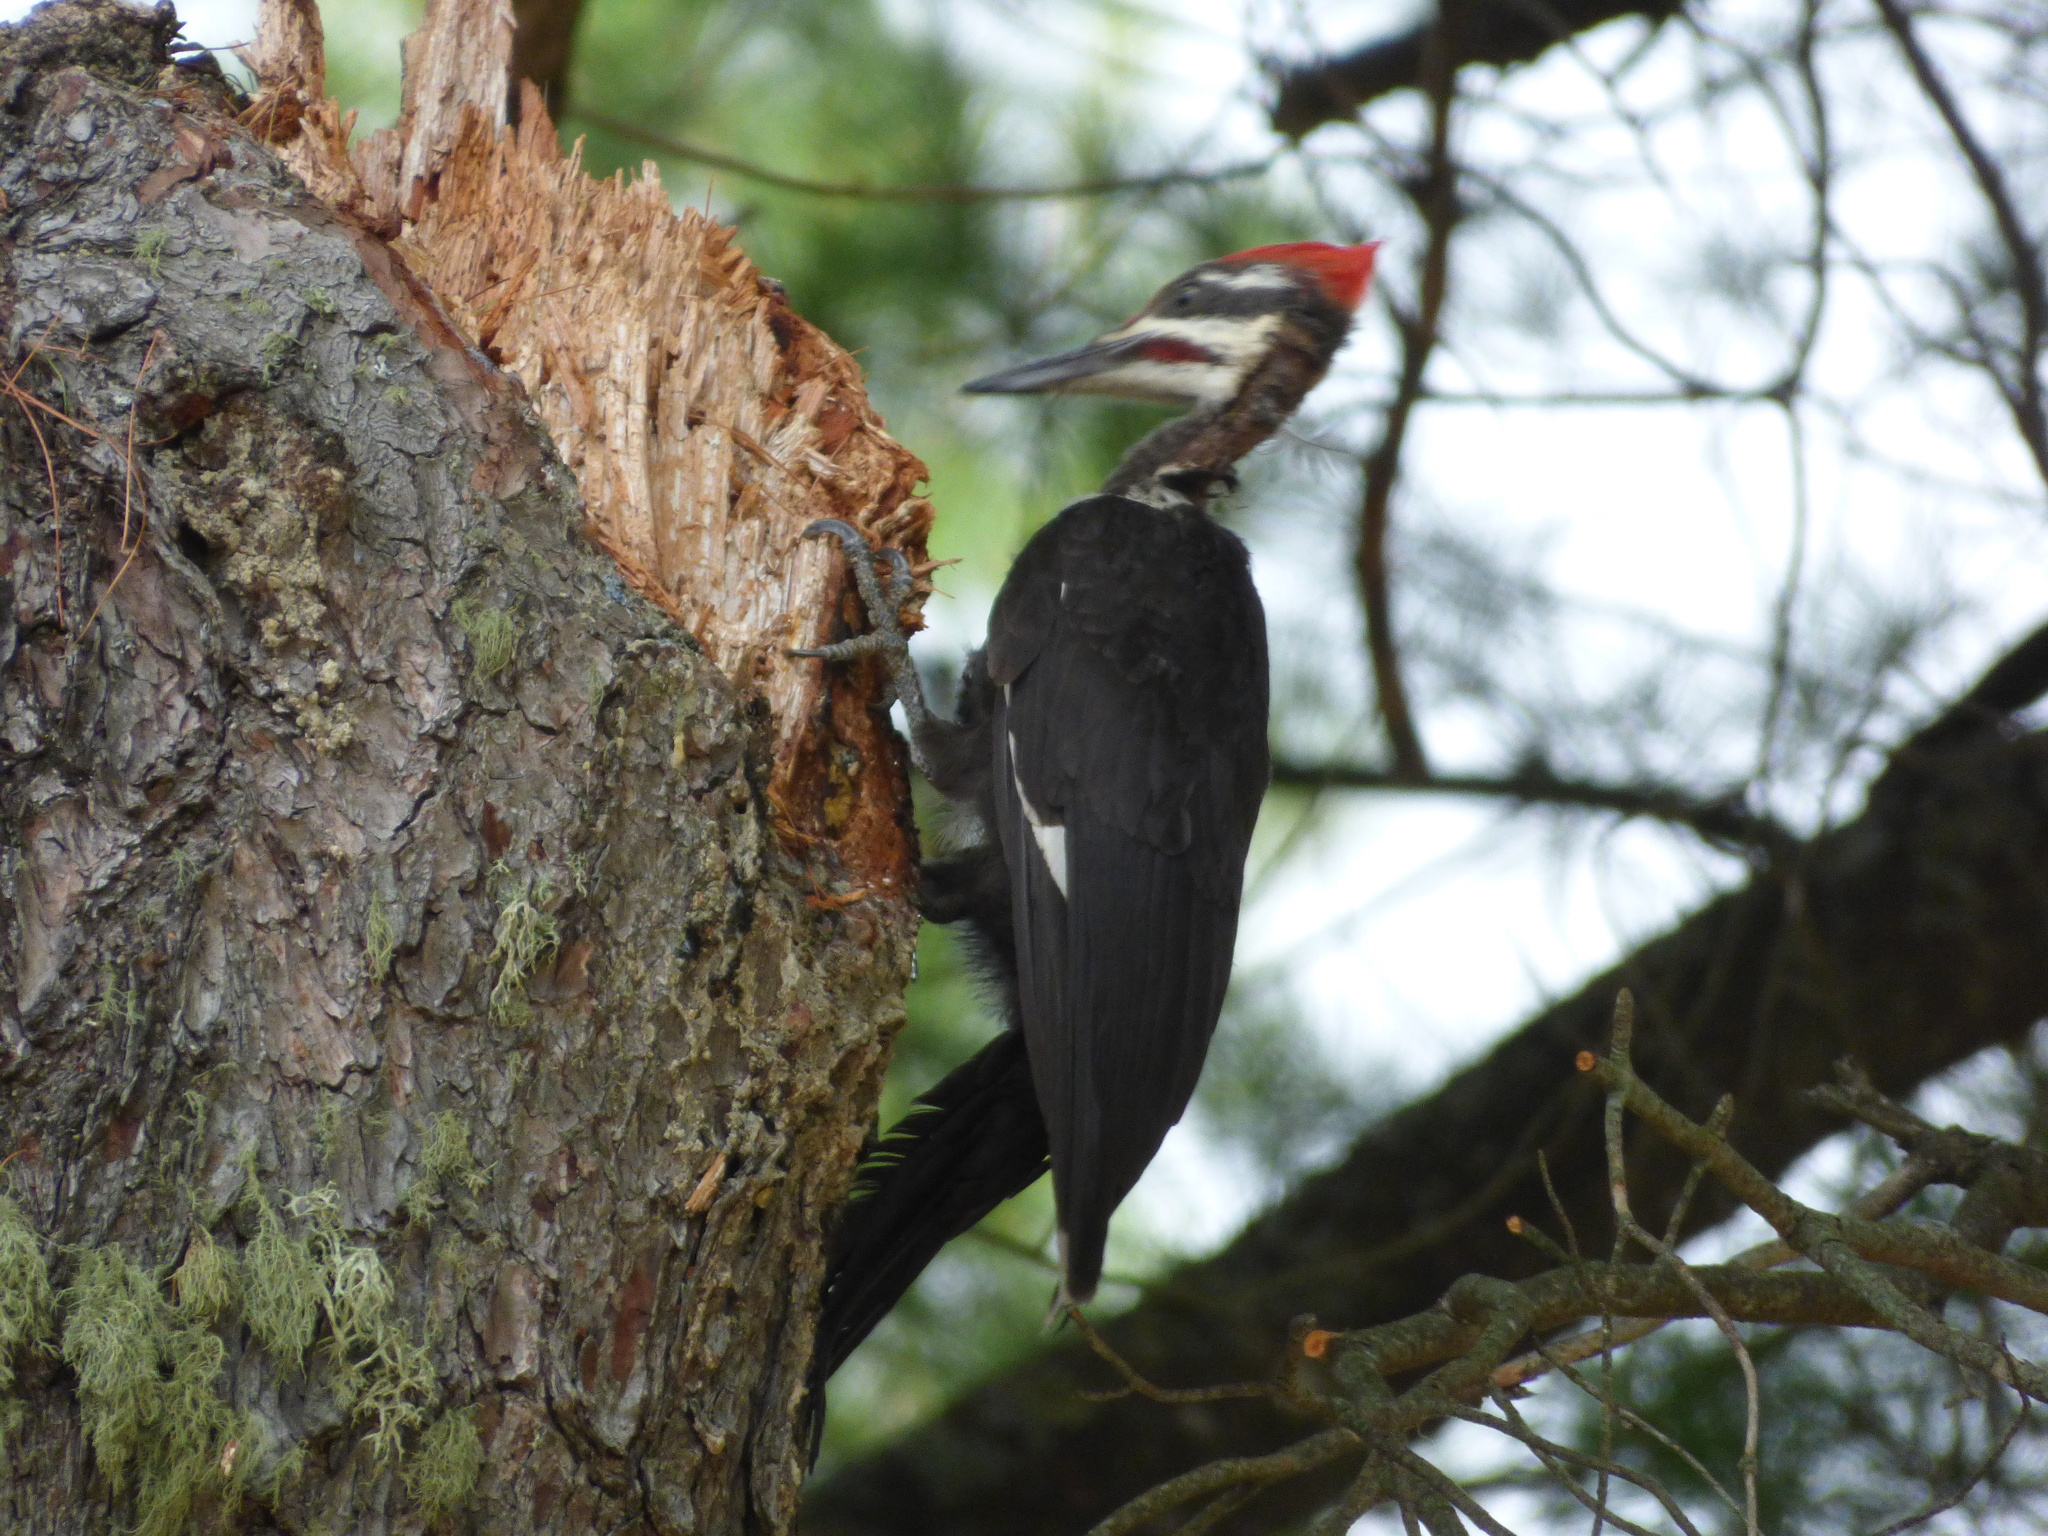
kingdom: Animalia
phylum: Chordata
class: Aves
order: Piciformes
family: Picidae
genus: Dryocopus
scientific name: Dryocopus pileatus
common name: Pileated woodpecker
